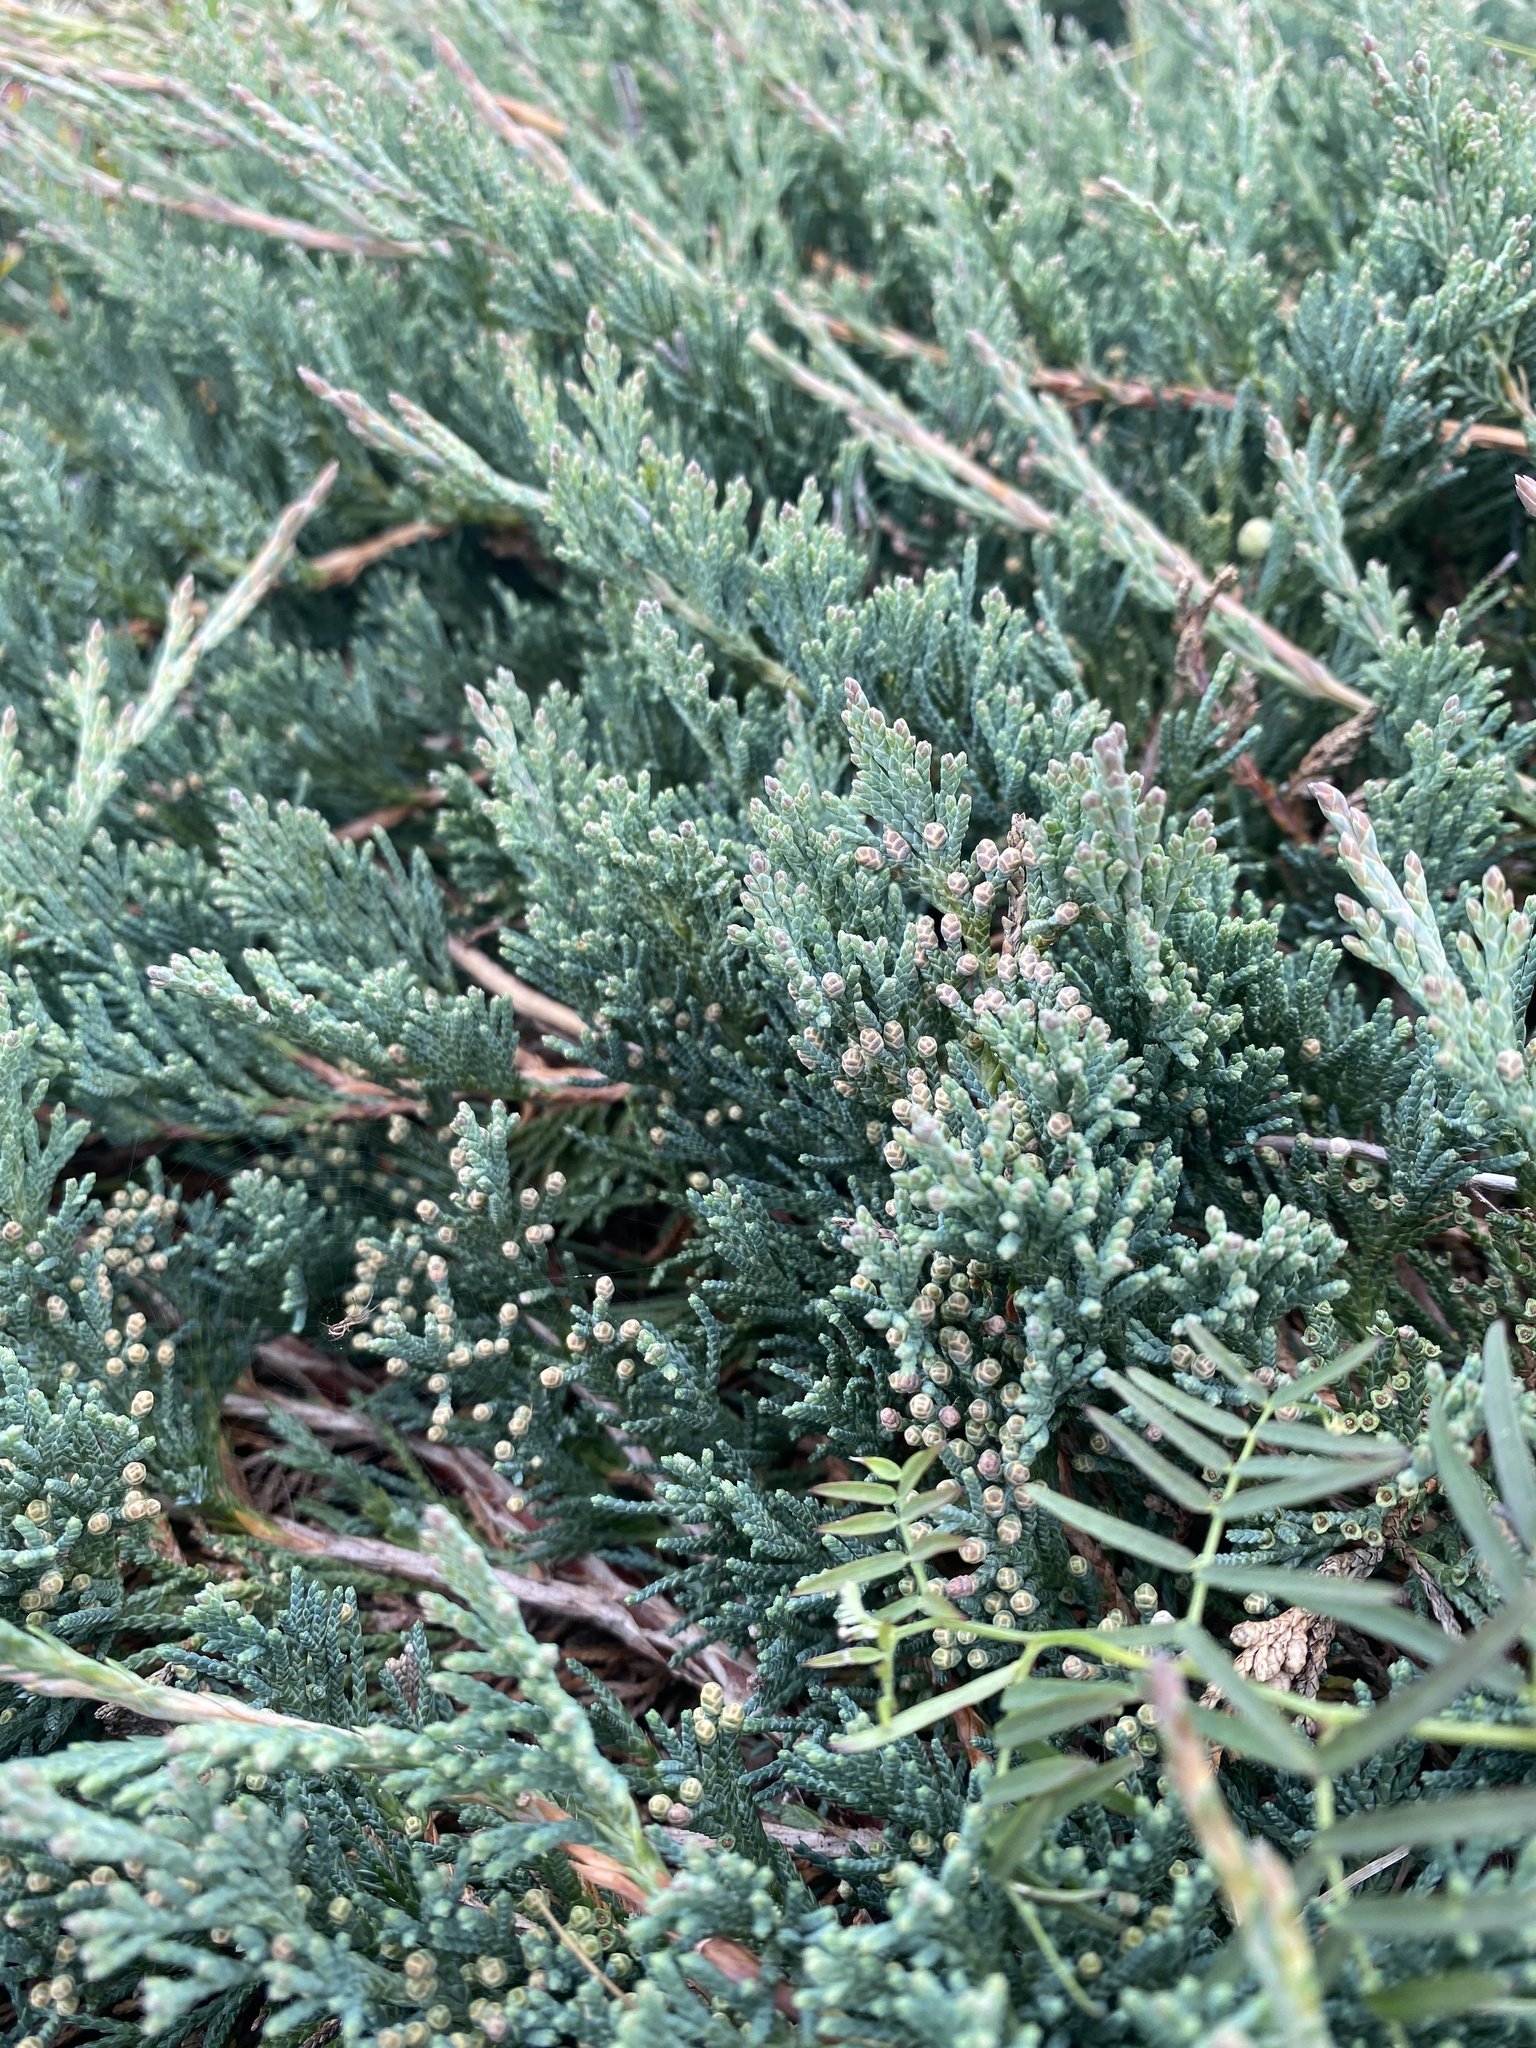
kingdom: Plantae
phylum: Tracheophyta
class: Pinopsida
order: Pinales
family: Cupressaceae
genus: Juniperus
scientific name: Juniperus horizontalis
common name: Creeping juniper
